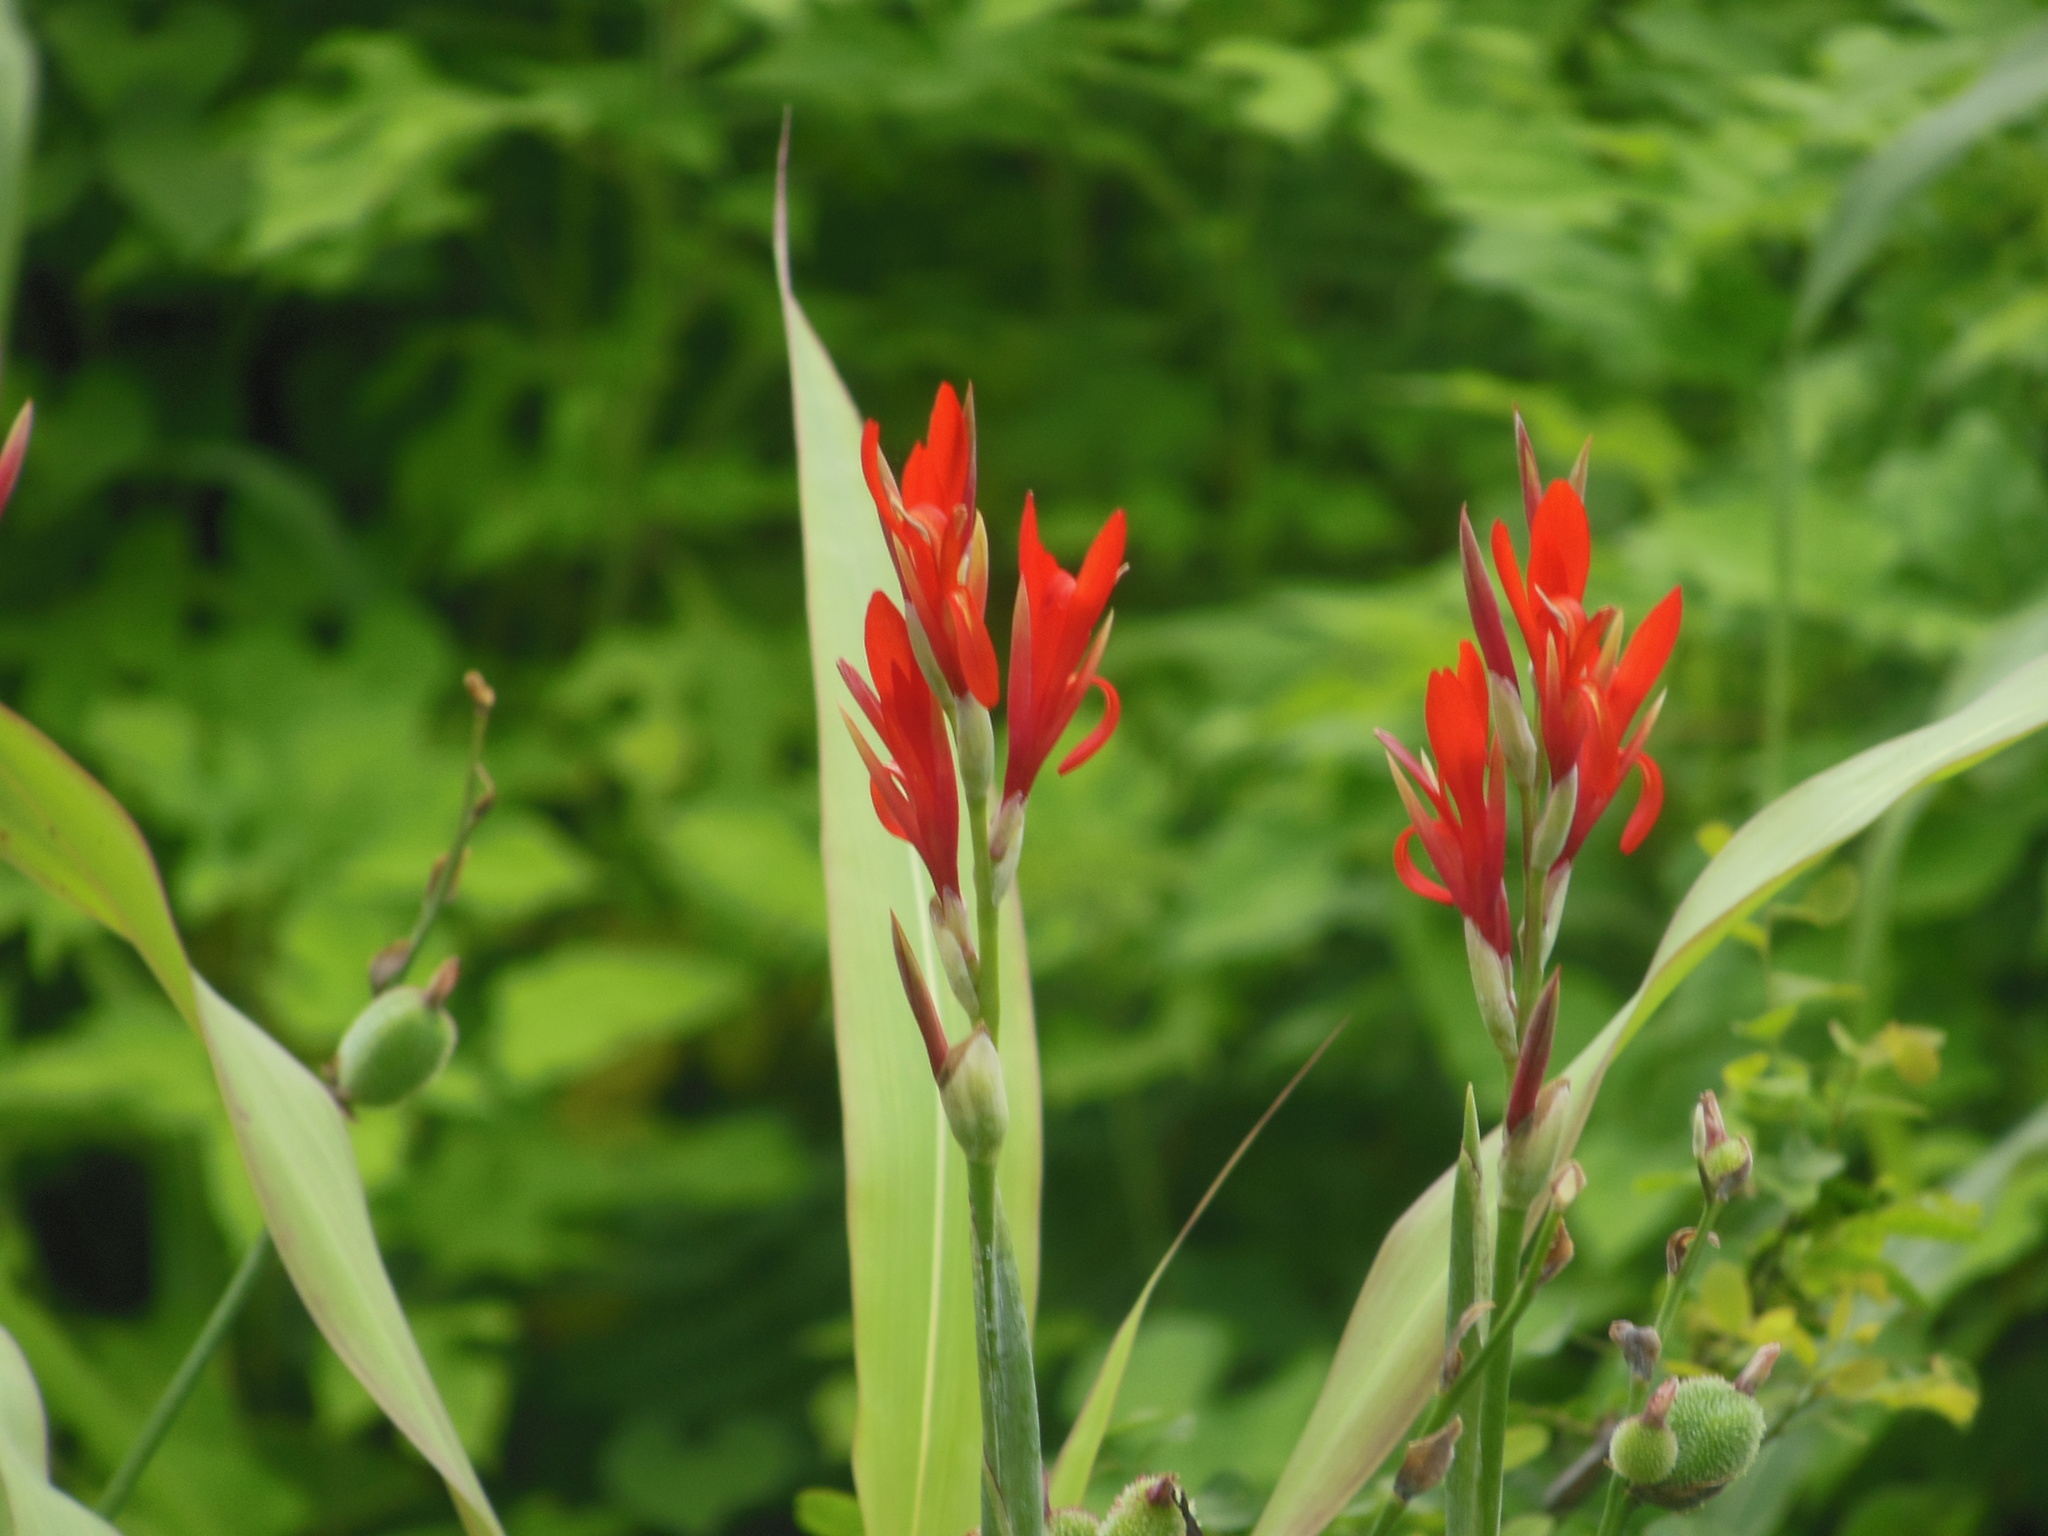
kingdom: Plantae
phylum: Tracheophyta
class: Liliopsida
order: Zingiberales
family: Cannaceae
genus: Canna
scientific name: Canna indica
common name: Indian shot
